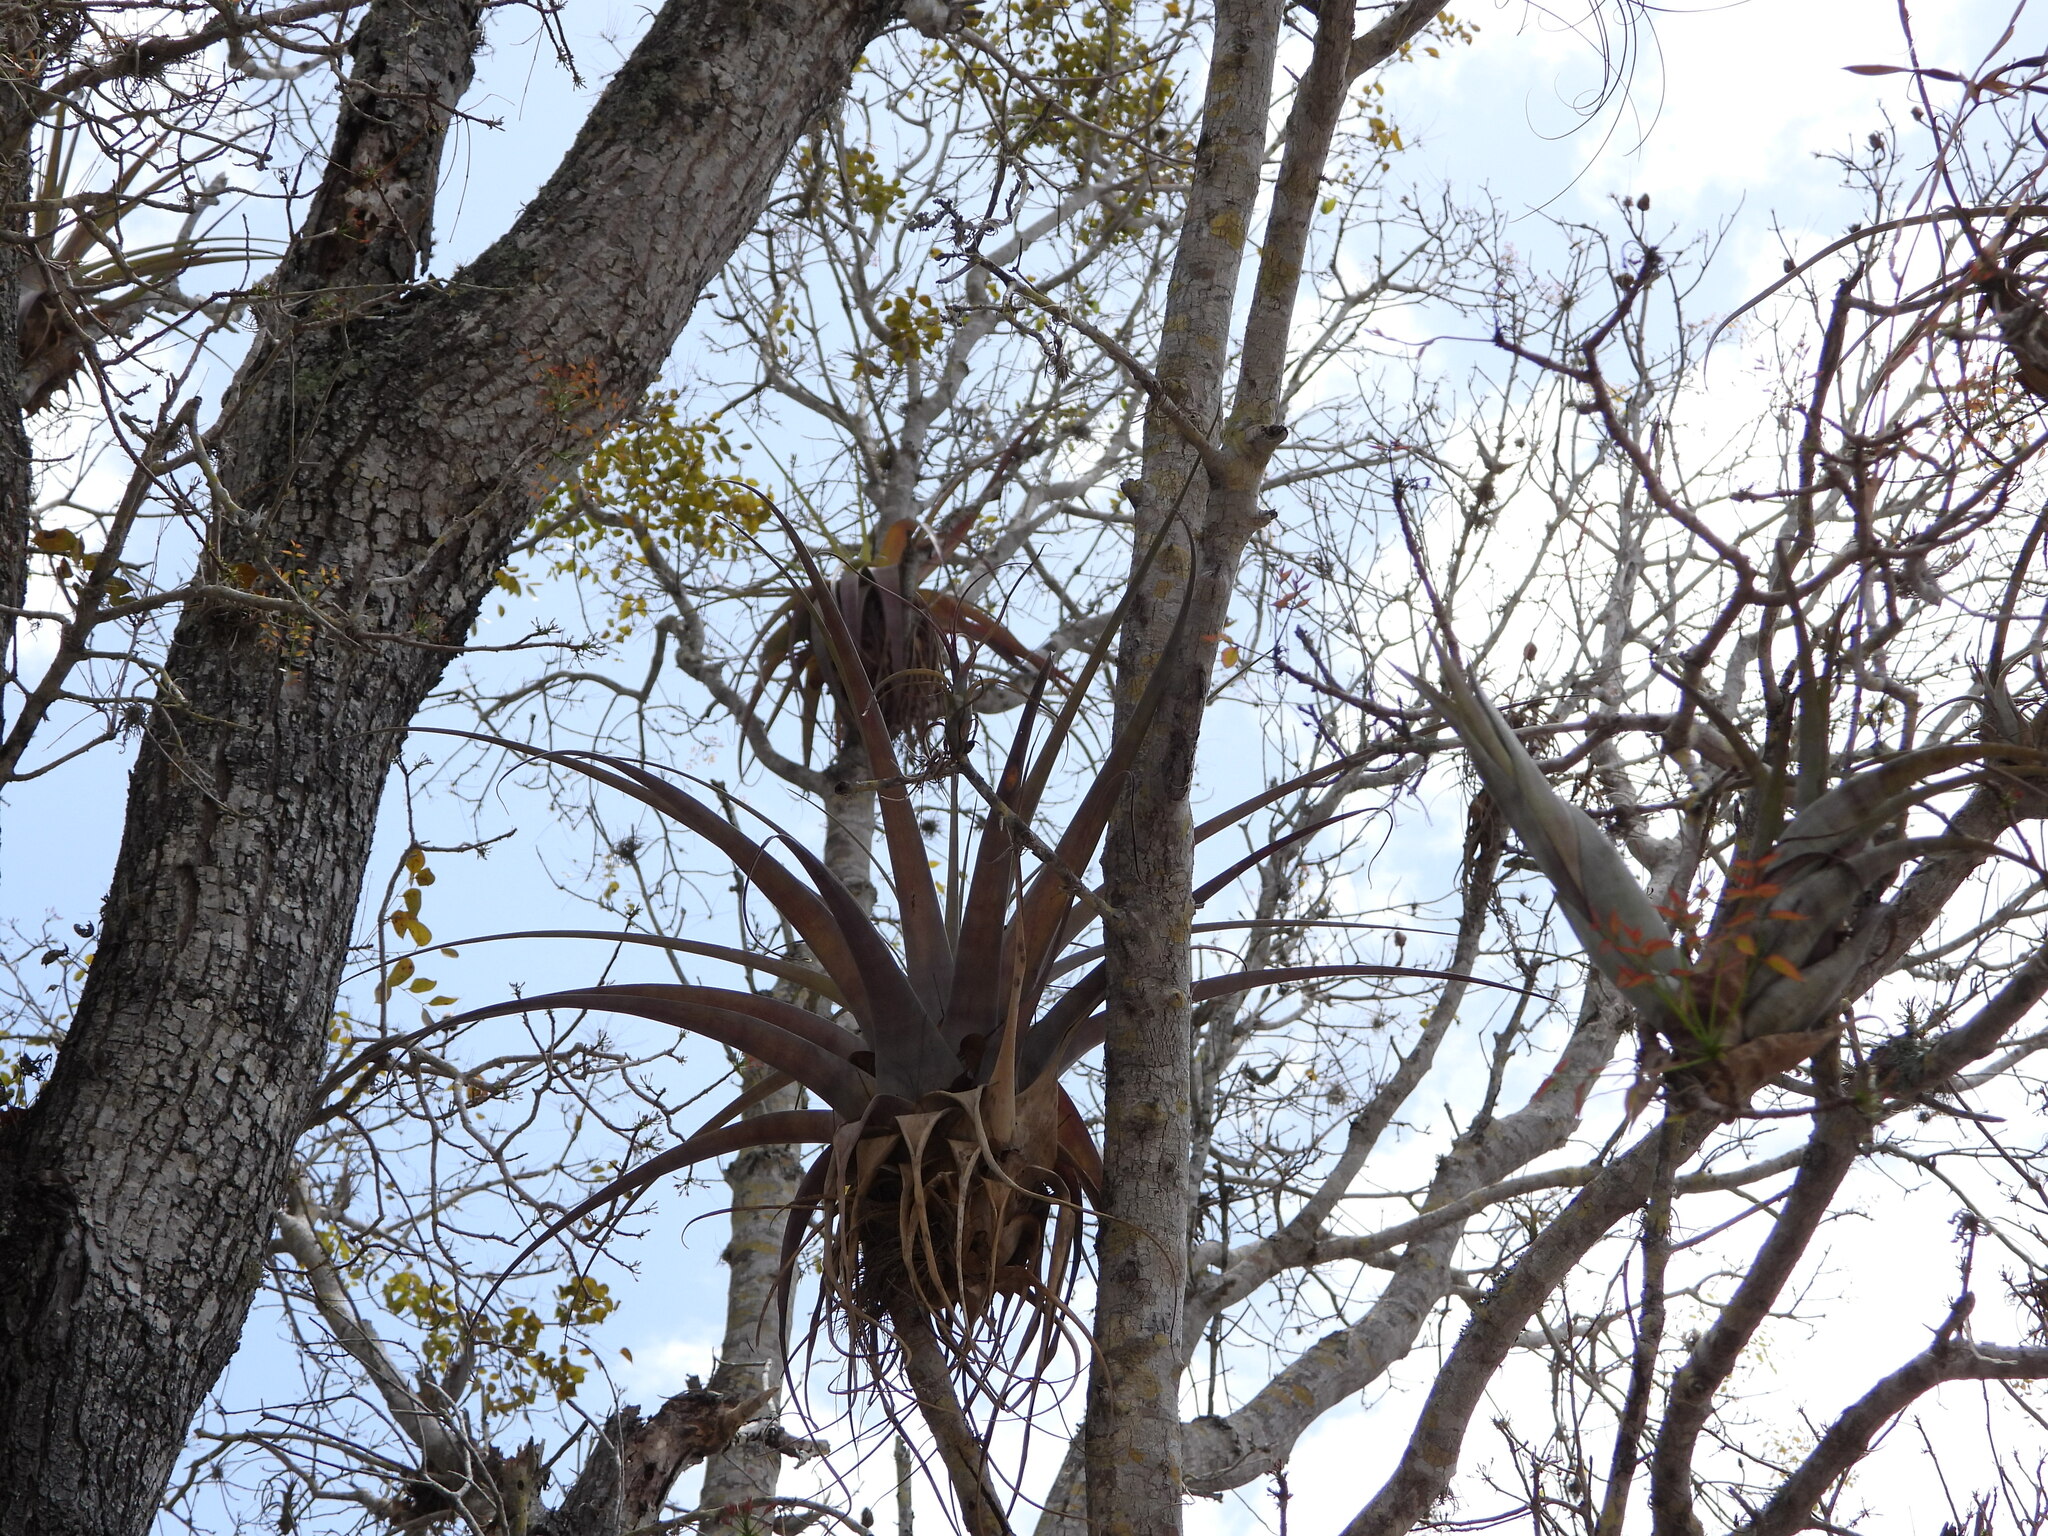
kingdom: Plantae
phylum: Tracheophyta
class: Liliopsida
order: Poales
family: Bromeliaceae
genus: Tillandsia
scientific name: Tillandsia utriculata
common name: Wild pine
